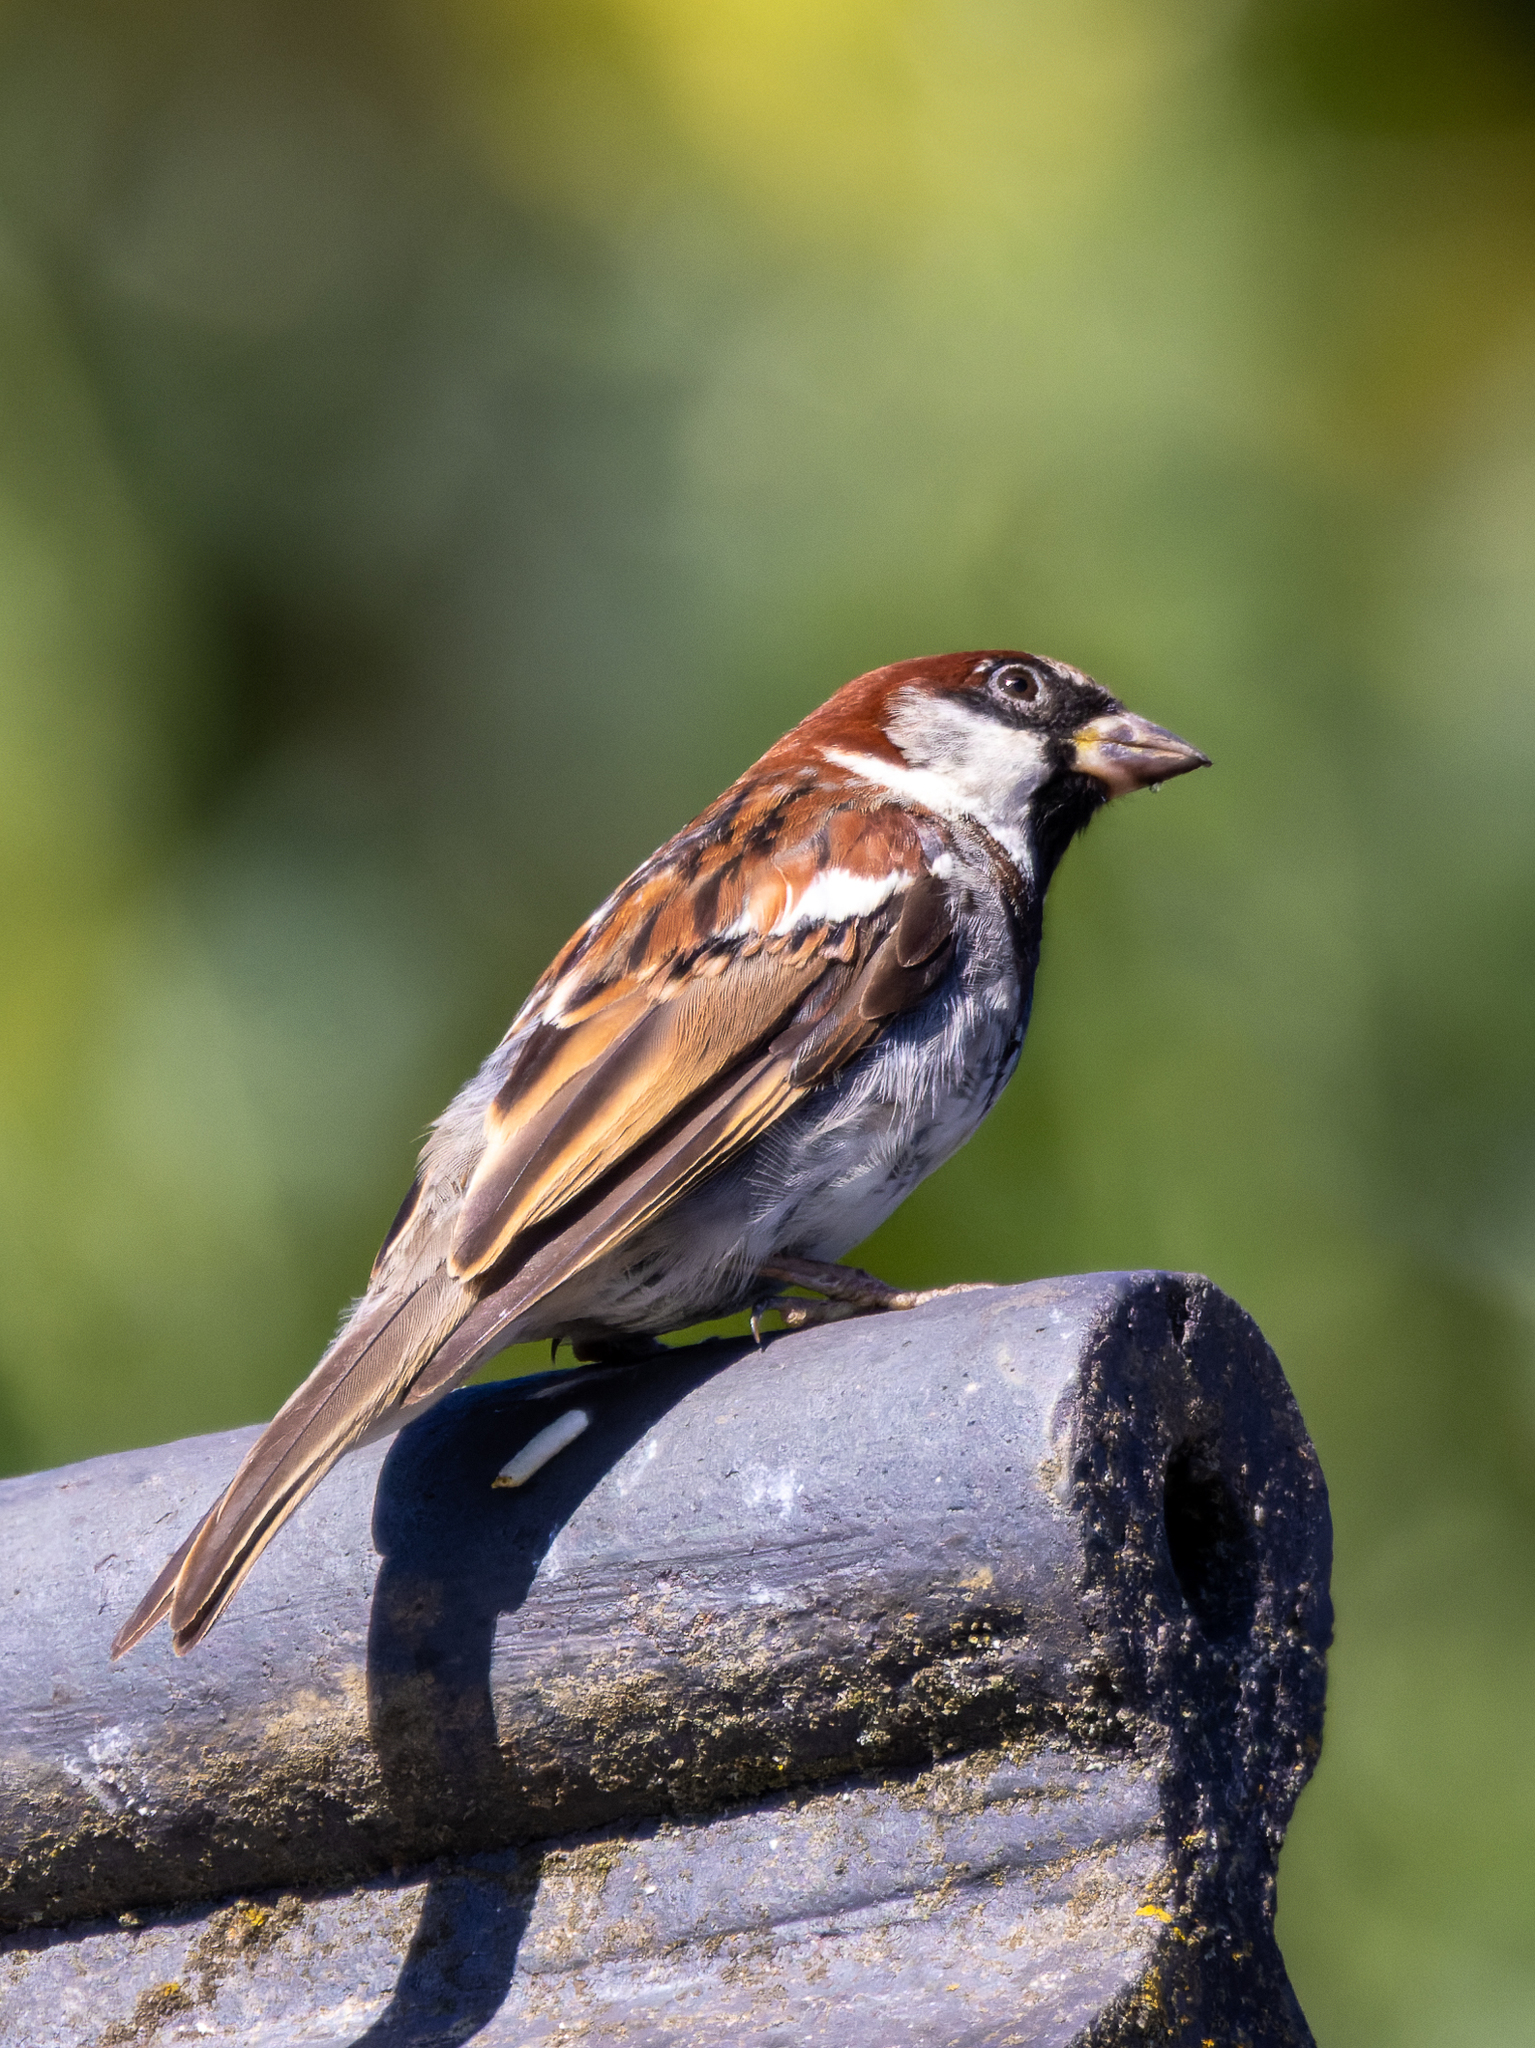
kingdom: Animalia
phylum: Chordata
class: Aves
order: Passeriformes
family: Passeridae
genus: Passer
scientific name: Passer domesticus
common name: House sparrow
